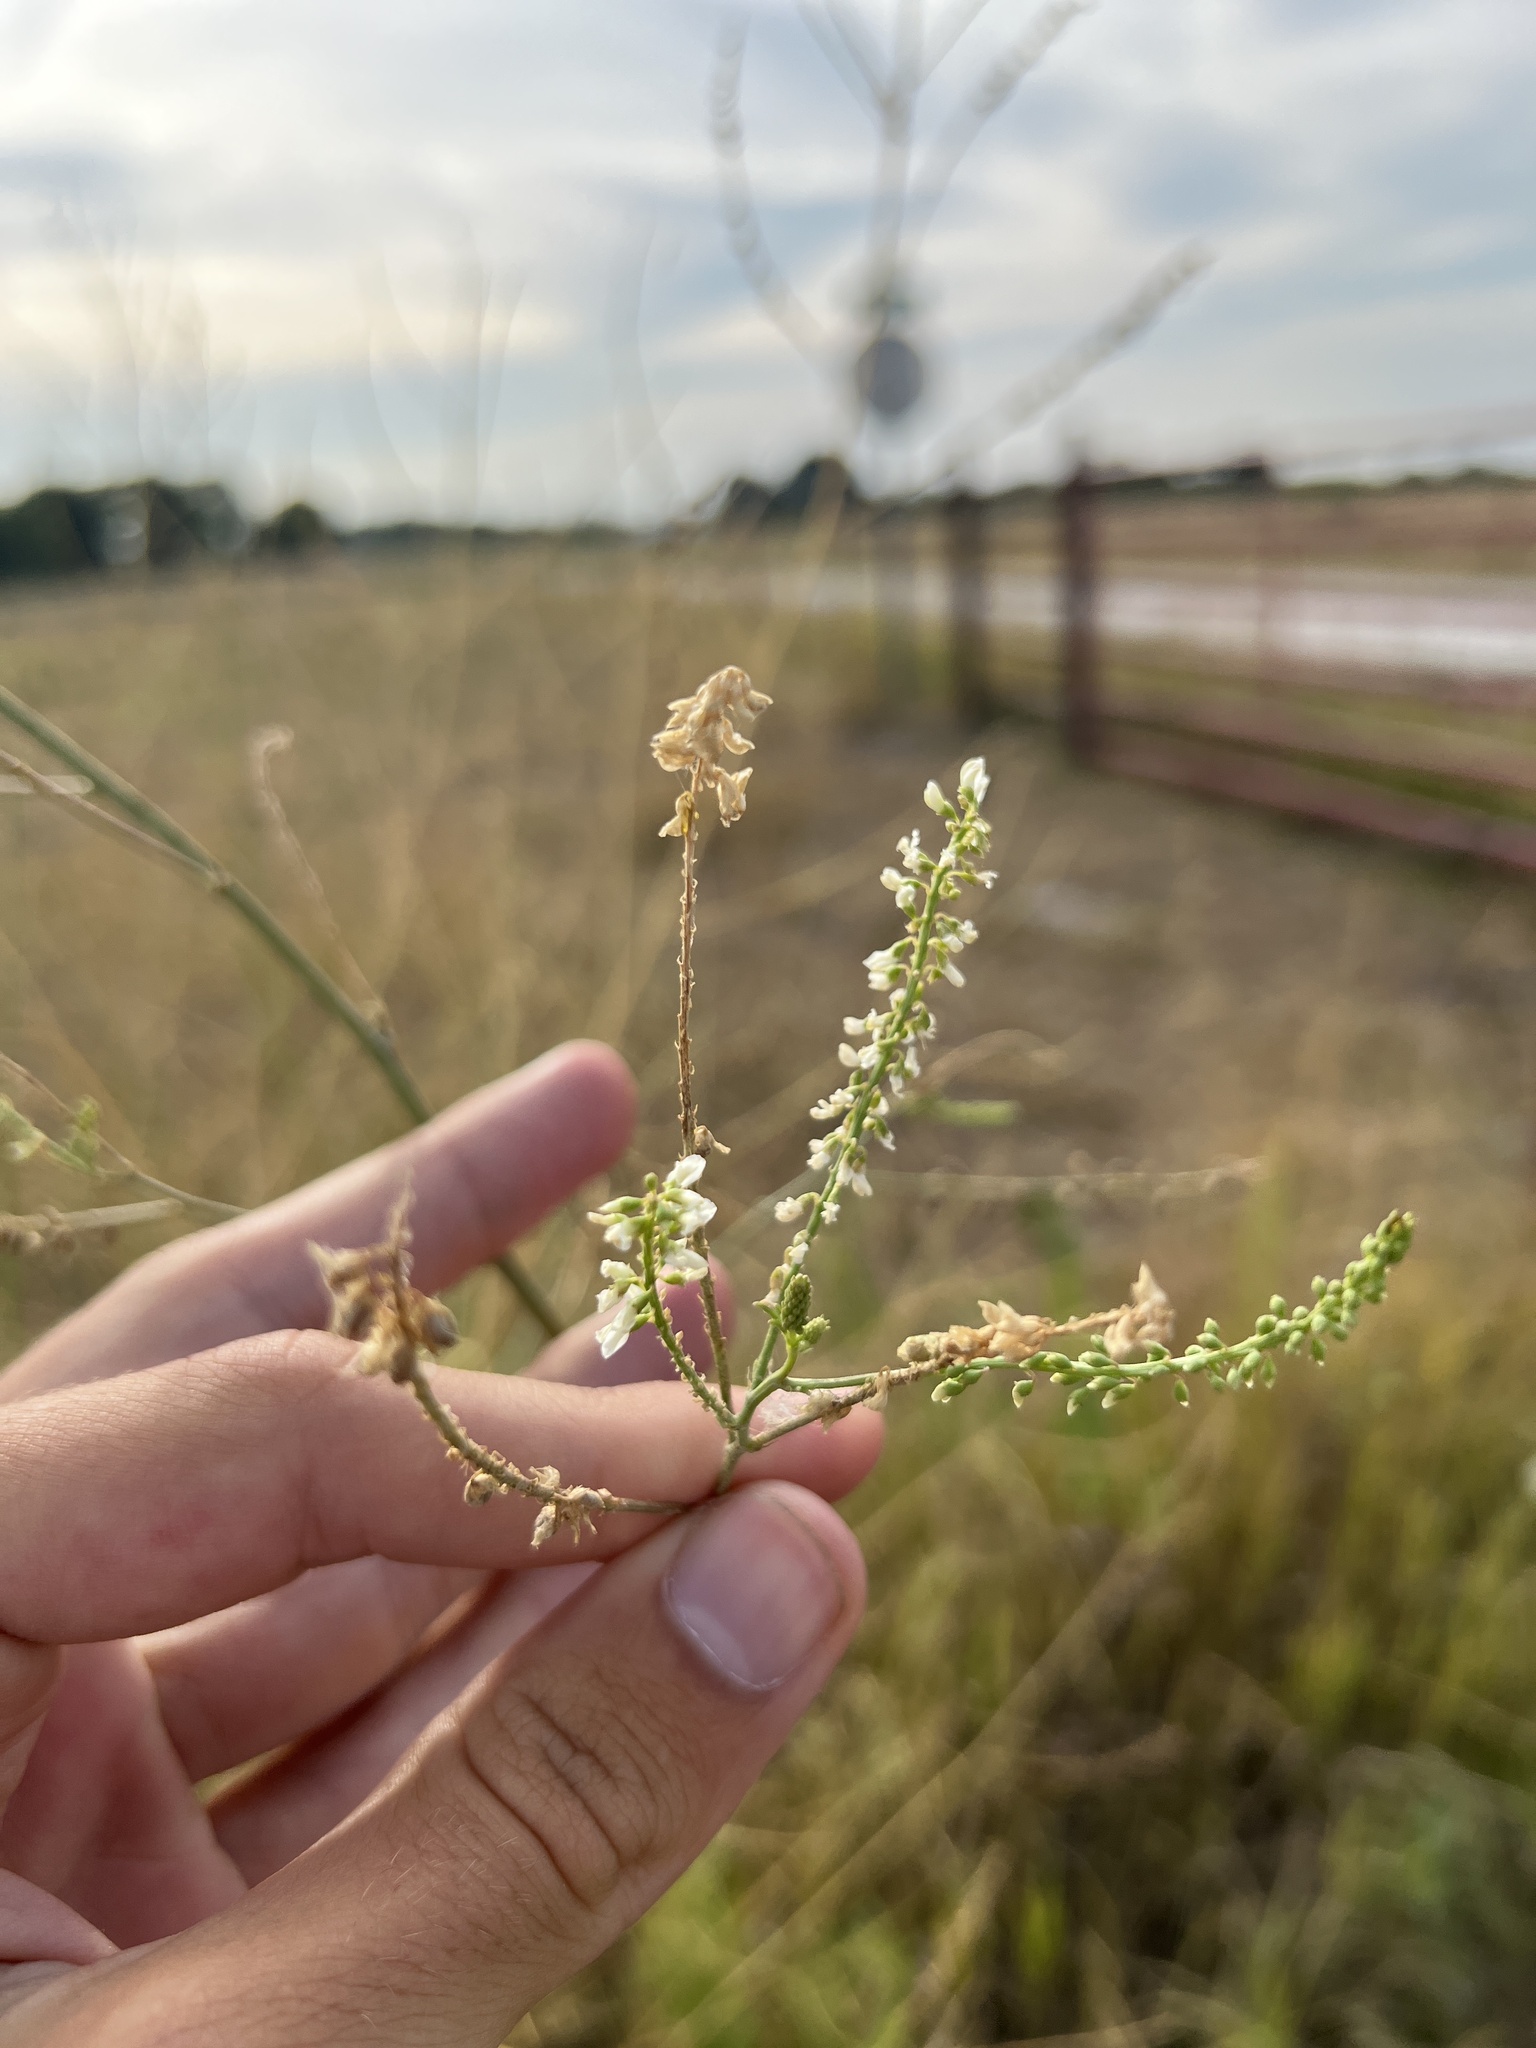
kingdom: Plantae
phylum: Tracheophyta
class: Magnoliopsida
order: Fabales
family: Fabaceae
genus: Melilotus
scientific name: Melilotus albus
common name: White melilot
